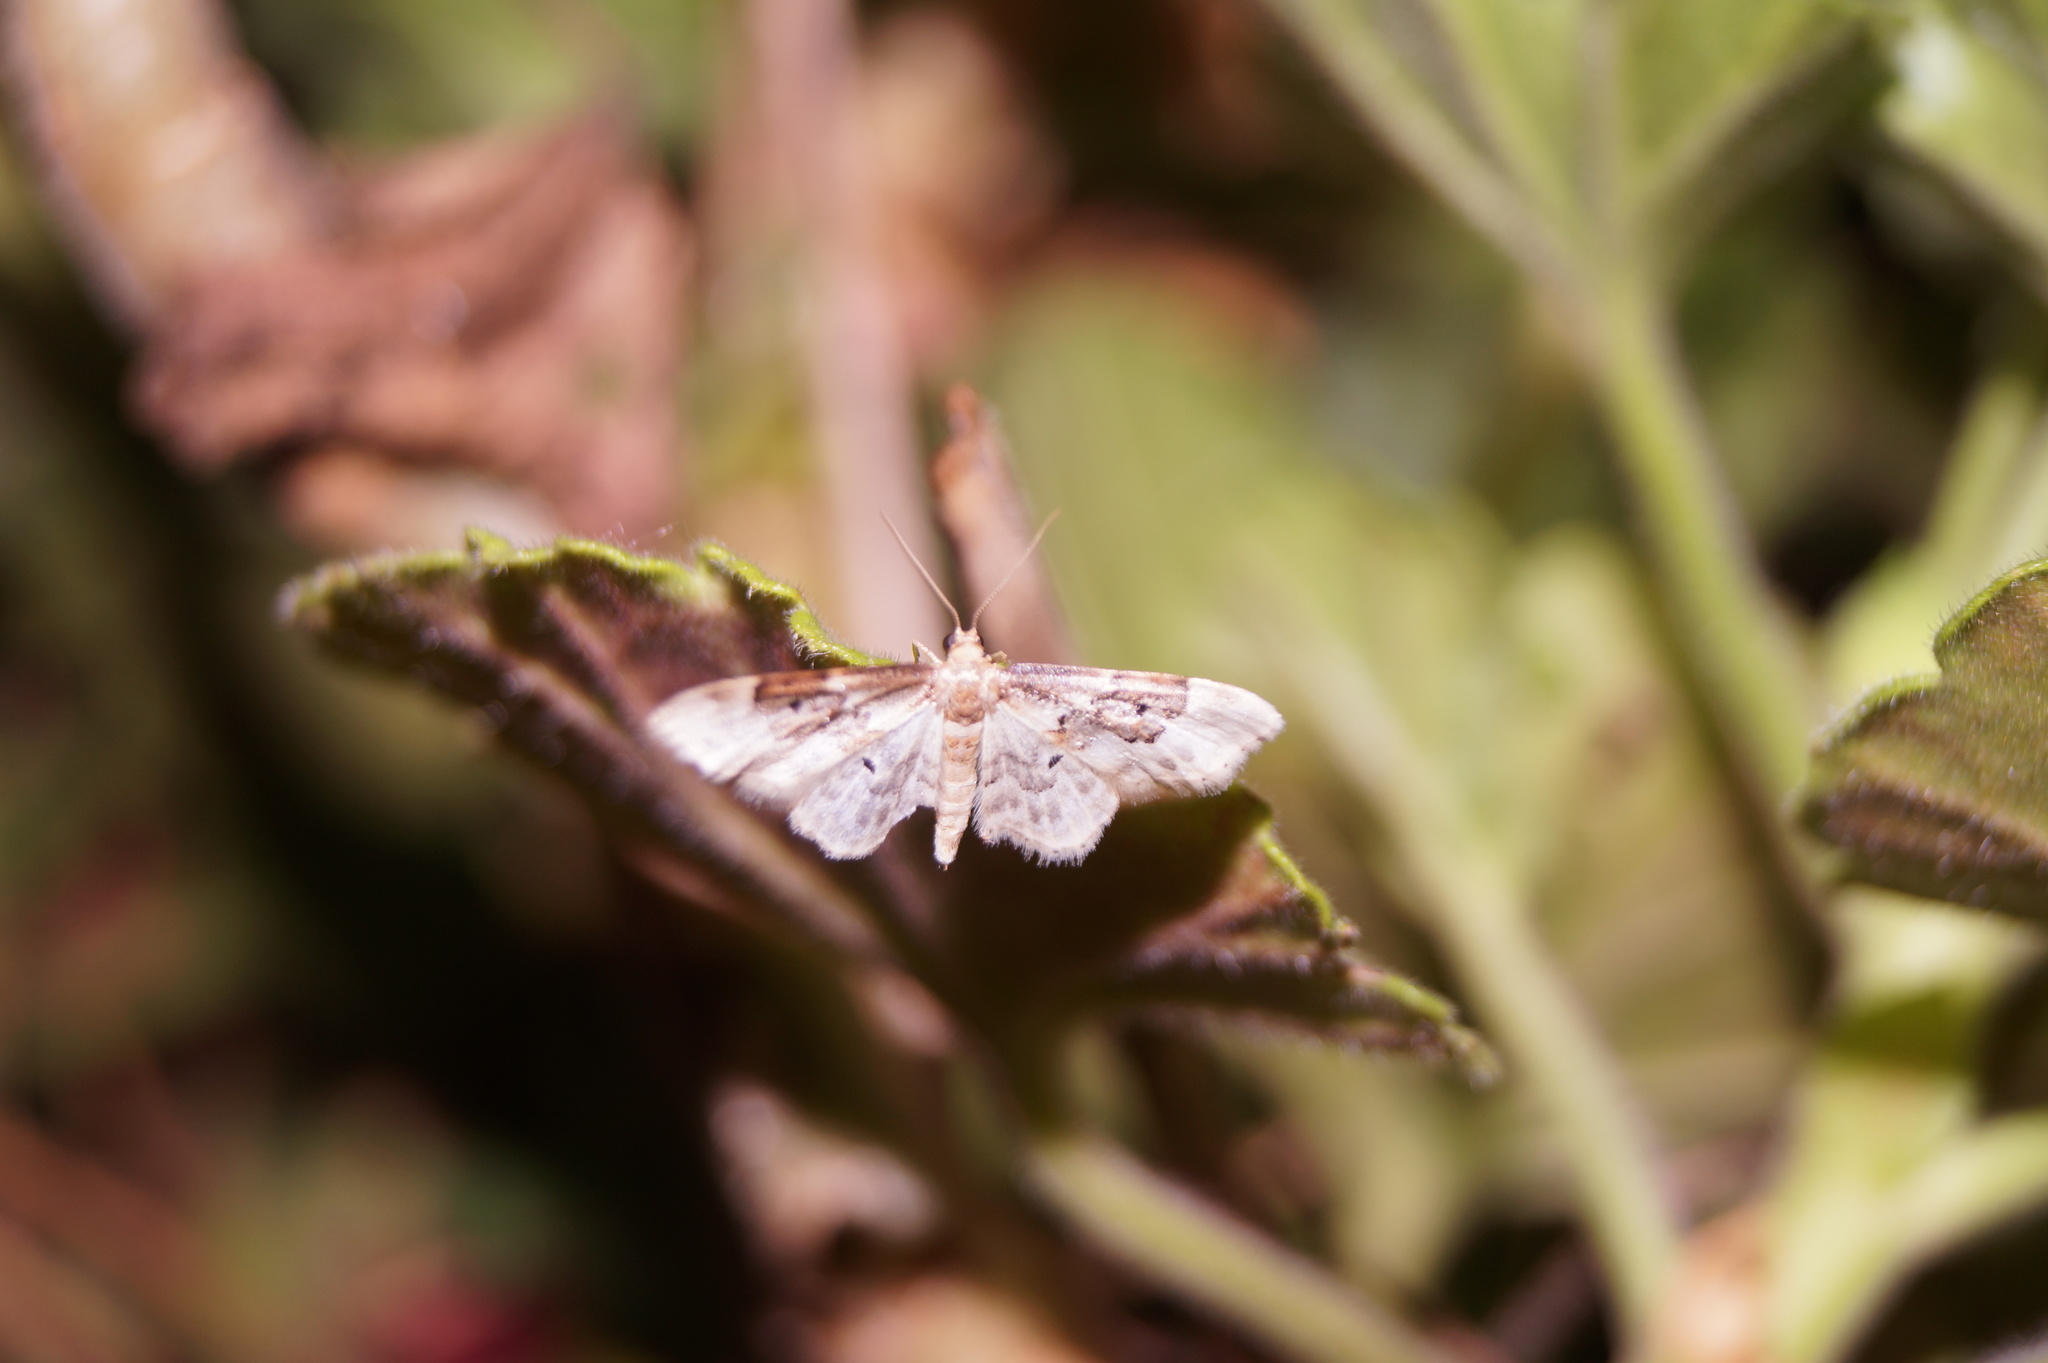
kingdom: Animalia
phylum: Arthropoda
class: Insecta
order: Lepidoptera
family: Geometridae
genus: Idaea
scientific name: Idaea rusticata
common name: Least carpet
